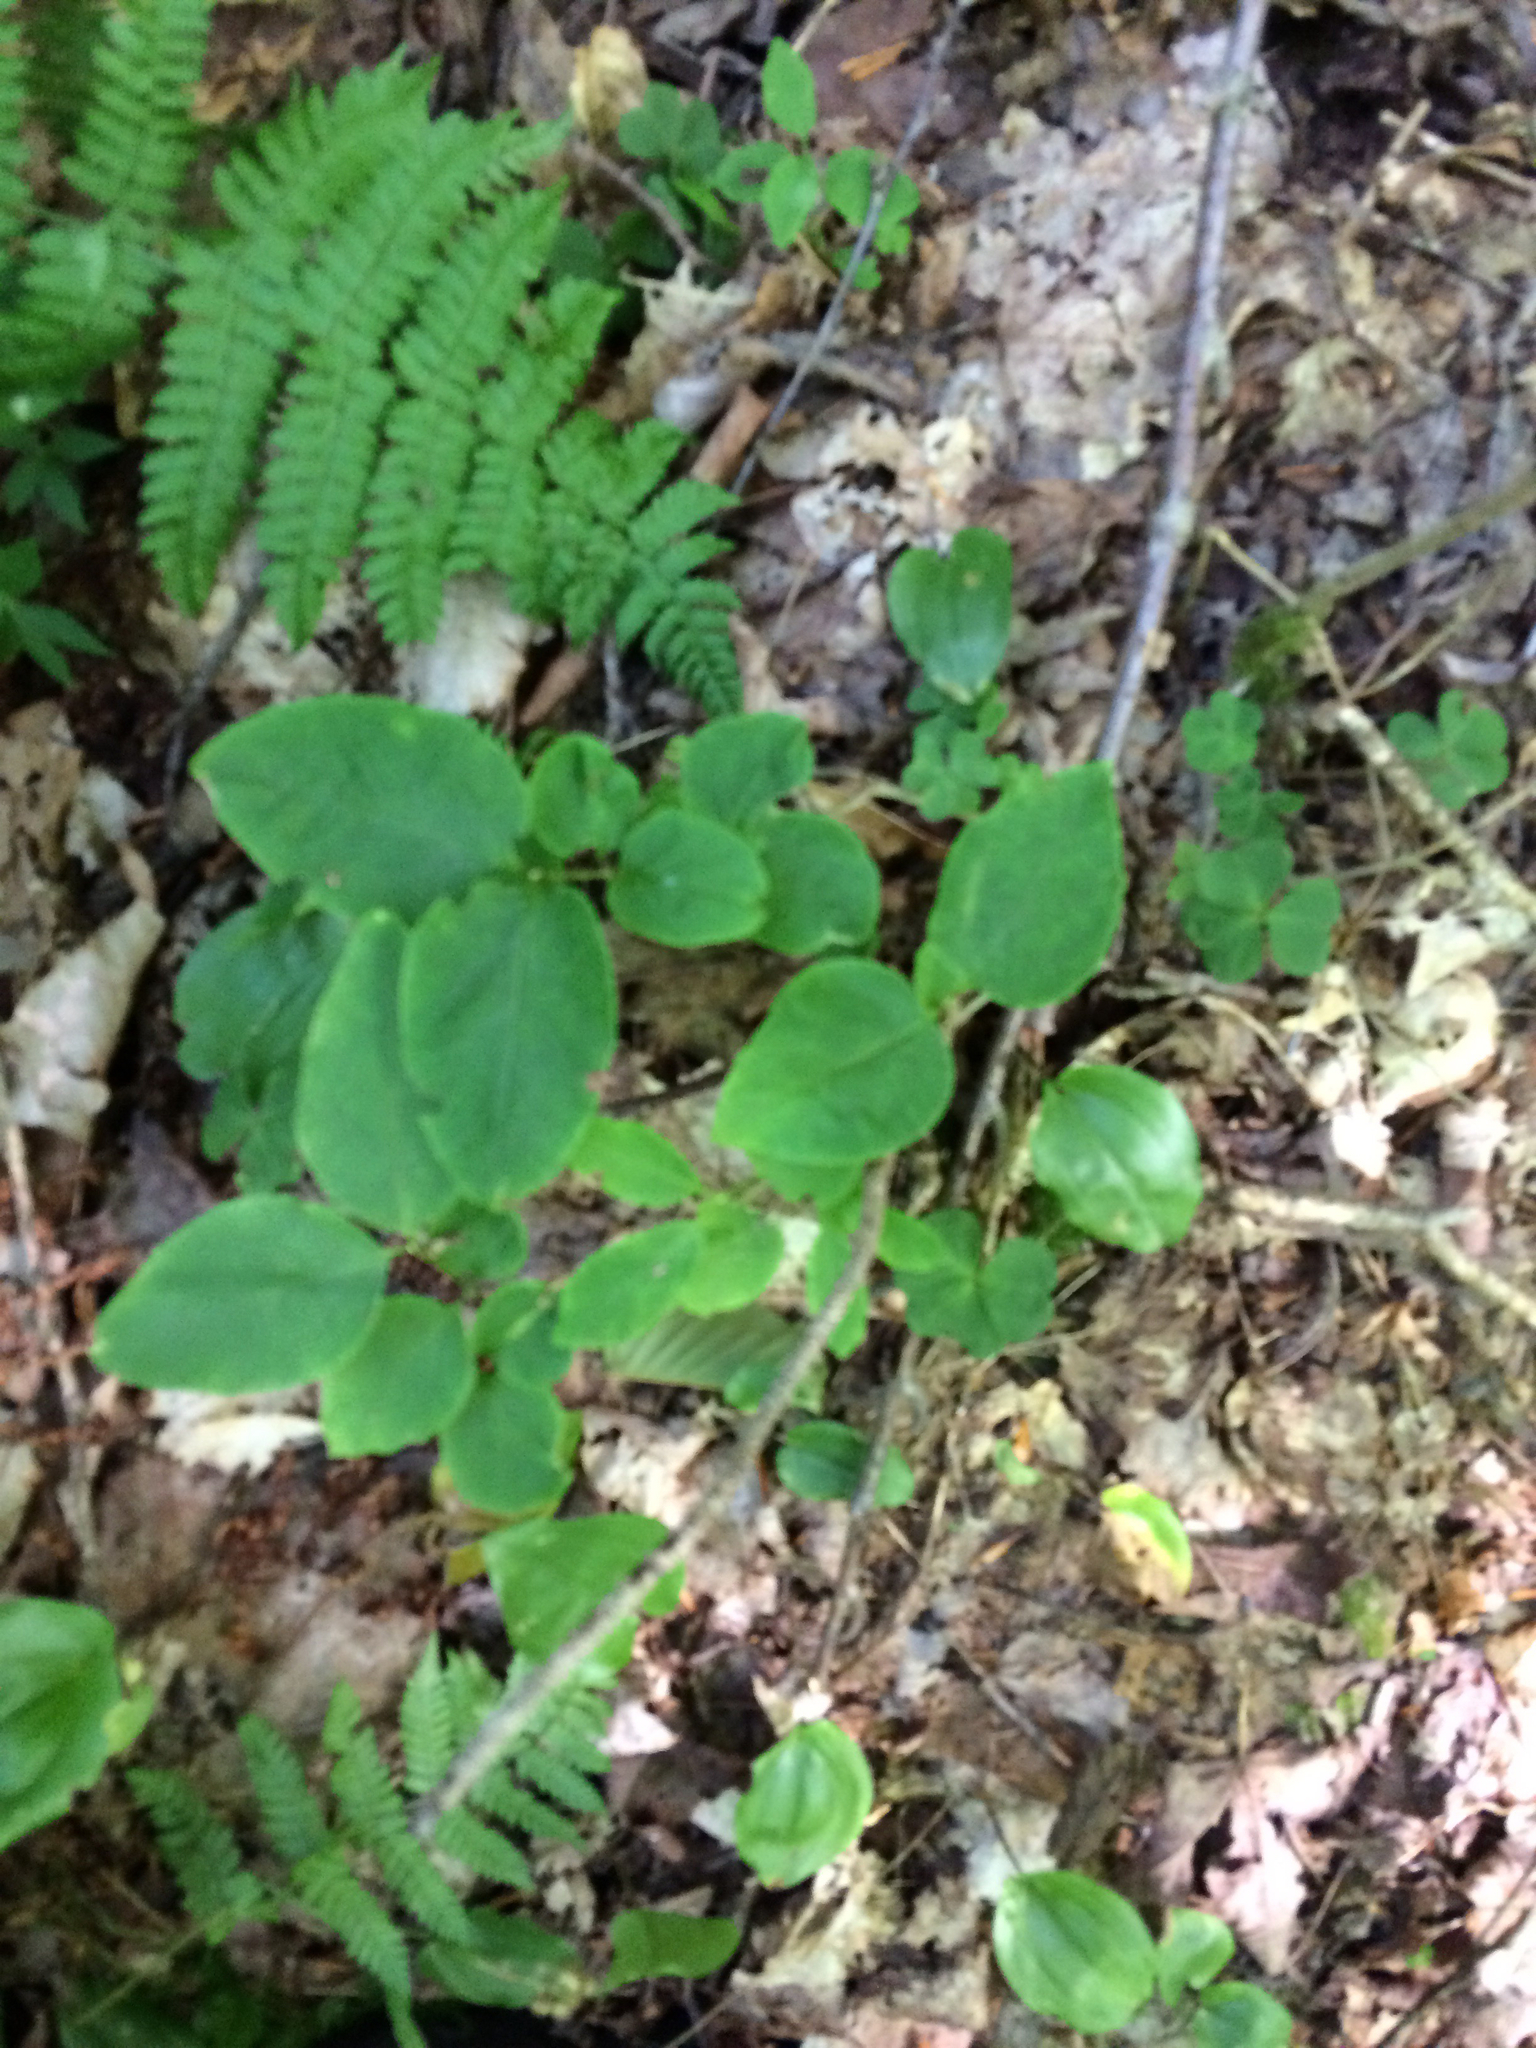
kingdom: Plantae
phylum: Tracheophyta
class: Magnoliopsida
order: Dipsacales
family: Caprifoliaceae
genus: Lonicera
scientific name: Lonicera canadensis
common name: American fly-honeysuckle
